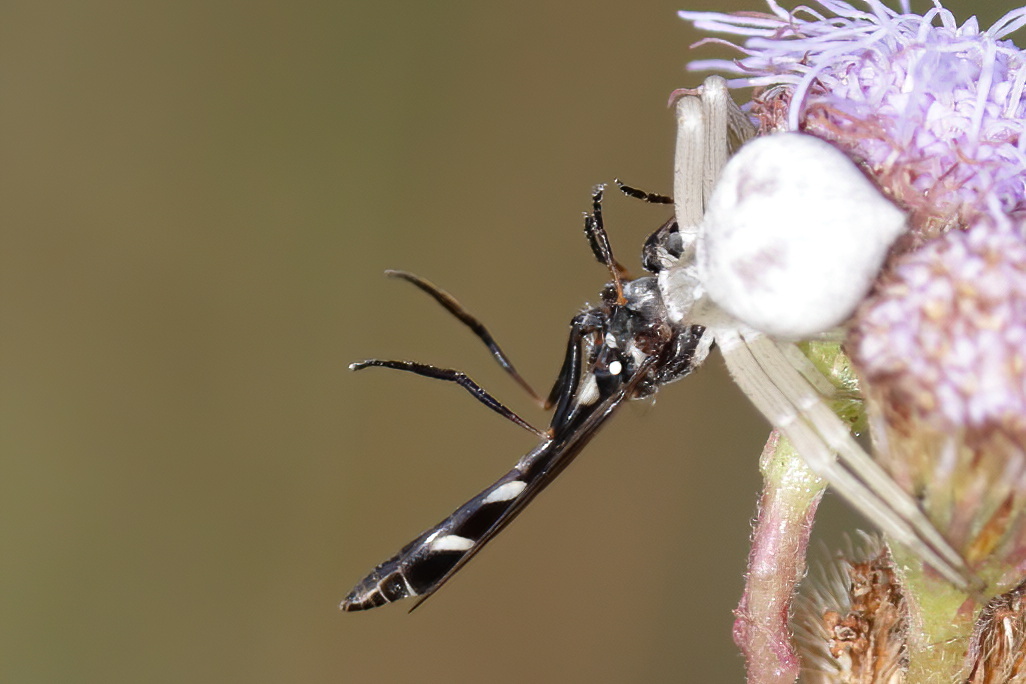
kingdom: Animalia
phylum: Arthropoda
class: Insecta
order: Diptera
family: Syrphidae
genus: Dioprosopa
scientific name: Dioprosopa clavatus
